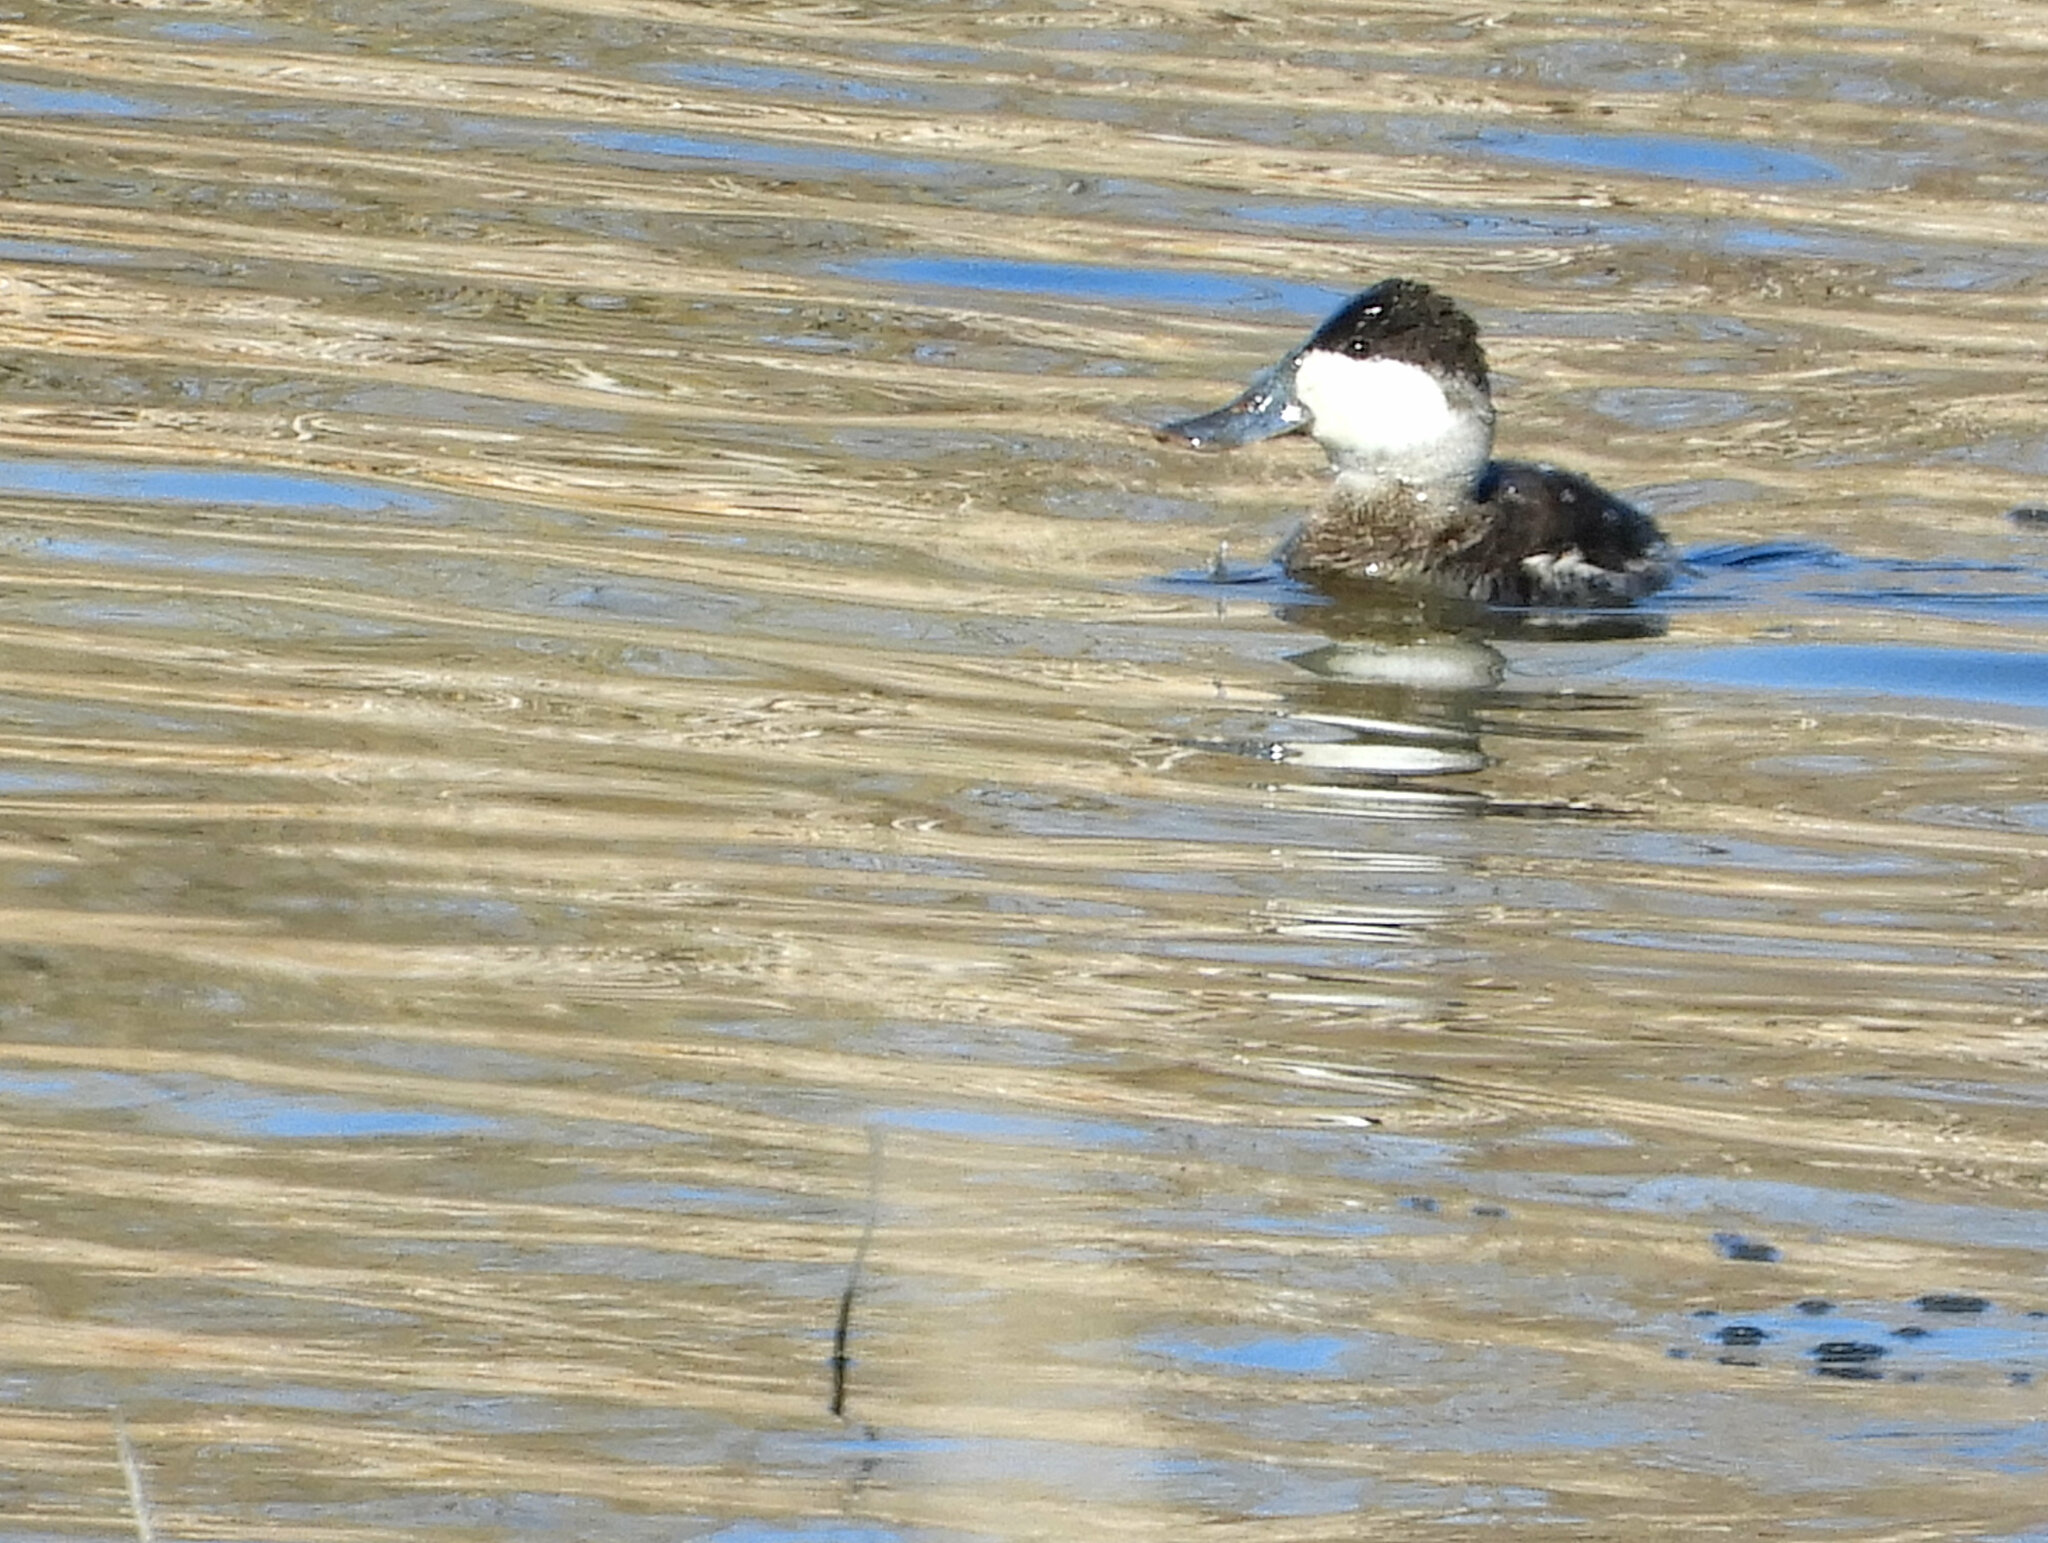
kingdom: Animalia
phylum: Chordata
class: Aves
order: Anseriformes
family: Anatidae
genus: Oxyura
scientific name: Oxyura jamaicensis
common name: Ruddy duck
